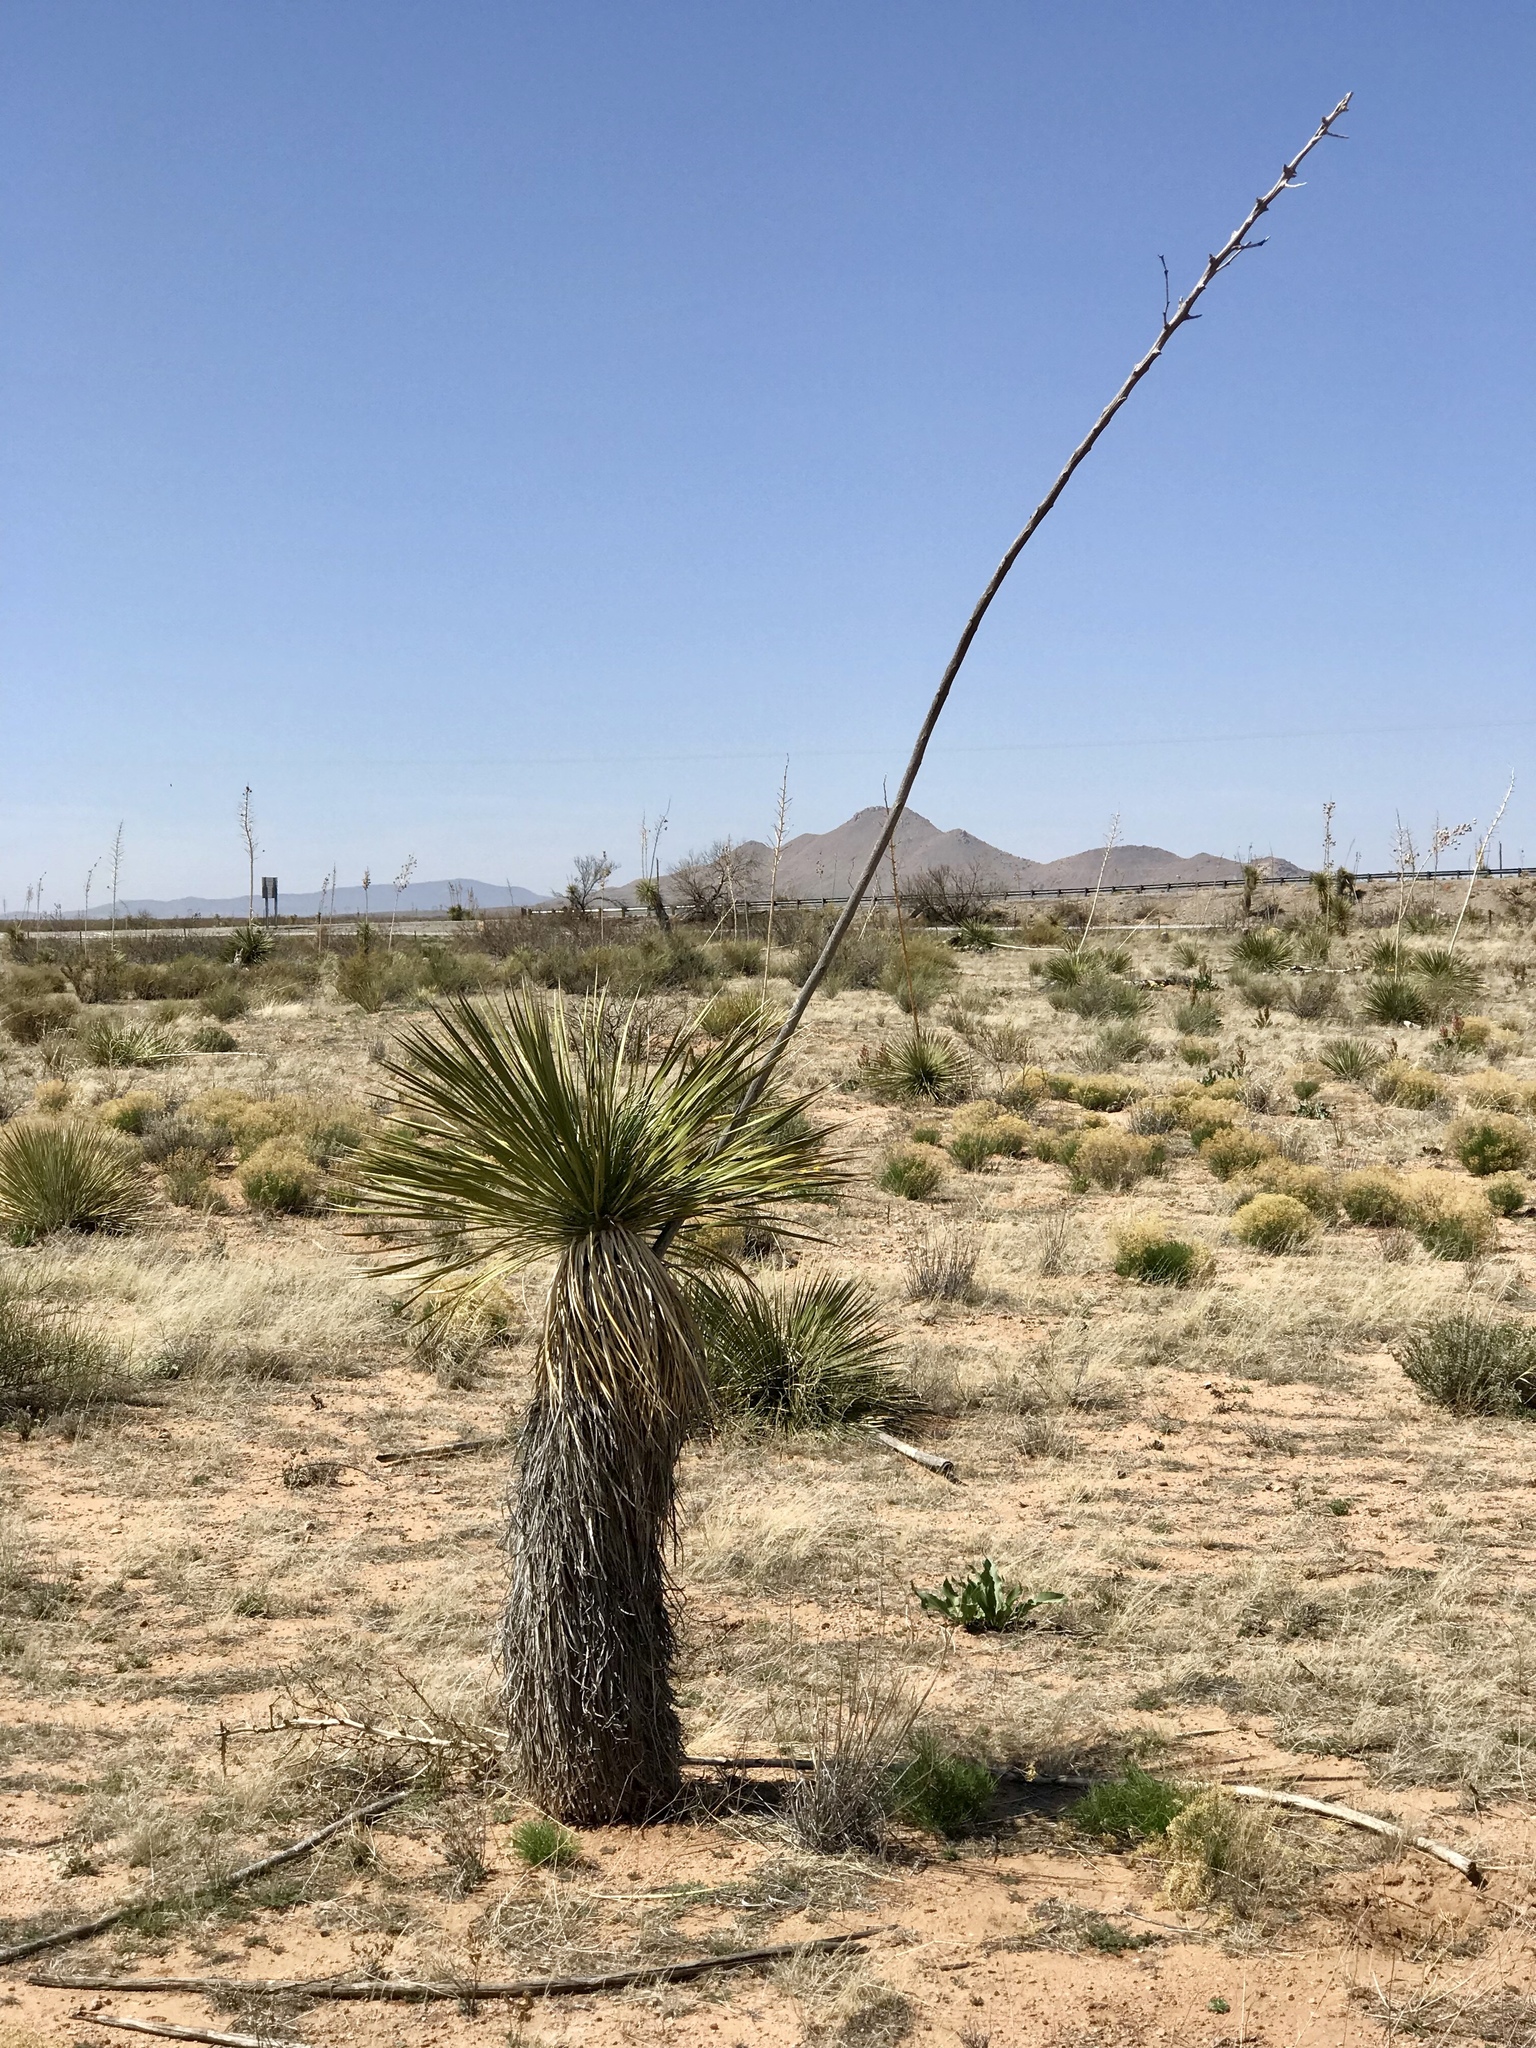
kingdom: Plantae
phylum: Tracheophyta
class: Liliopsida
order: Asparagales
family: Asparagaceae
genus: Yucca
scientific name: Yucca elata
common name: Palmella
